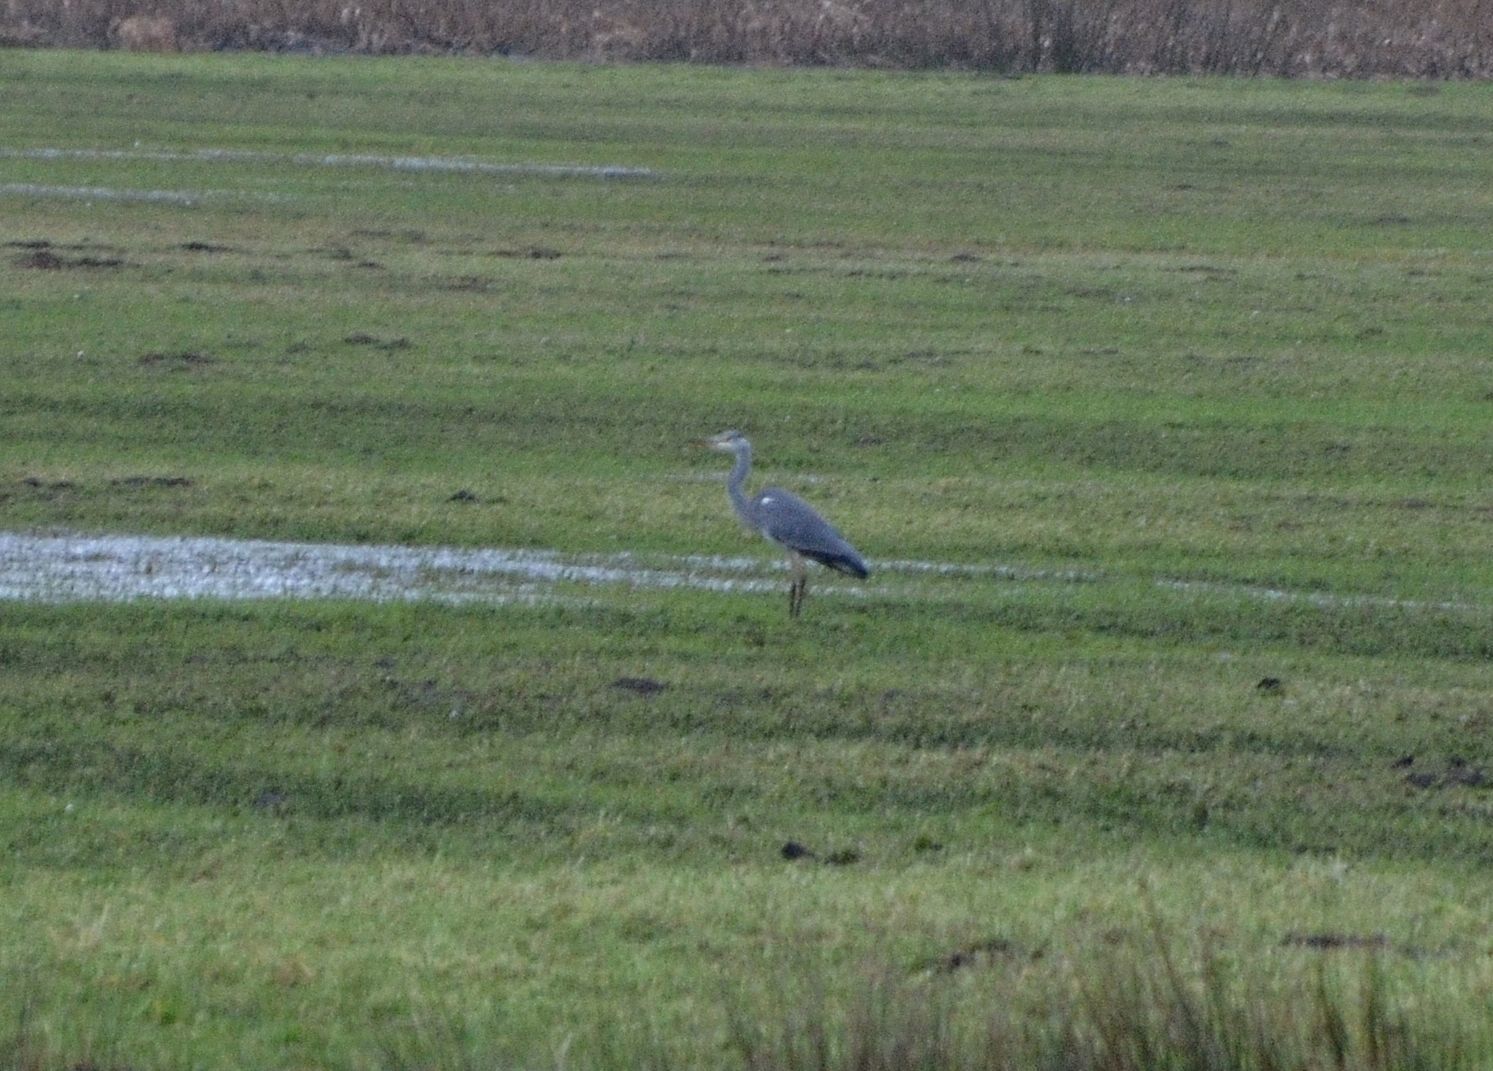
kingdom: Animalia
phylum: Chordata
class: Aves
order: Pelecaniformes
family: Ardeidae
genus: Ardea
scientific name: Ardea cinerea
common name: Grey heron
